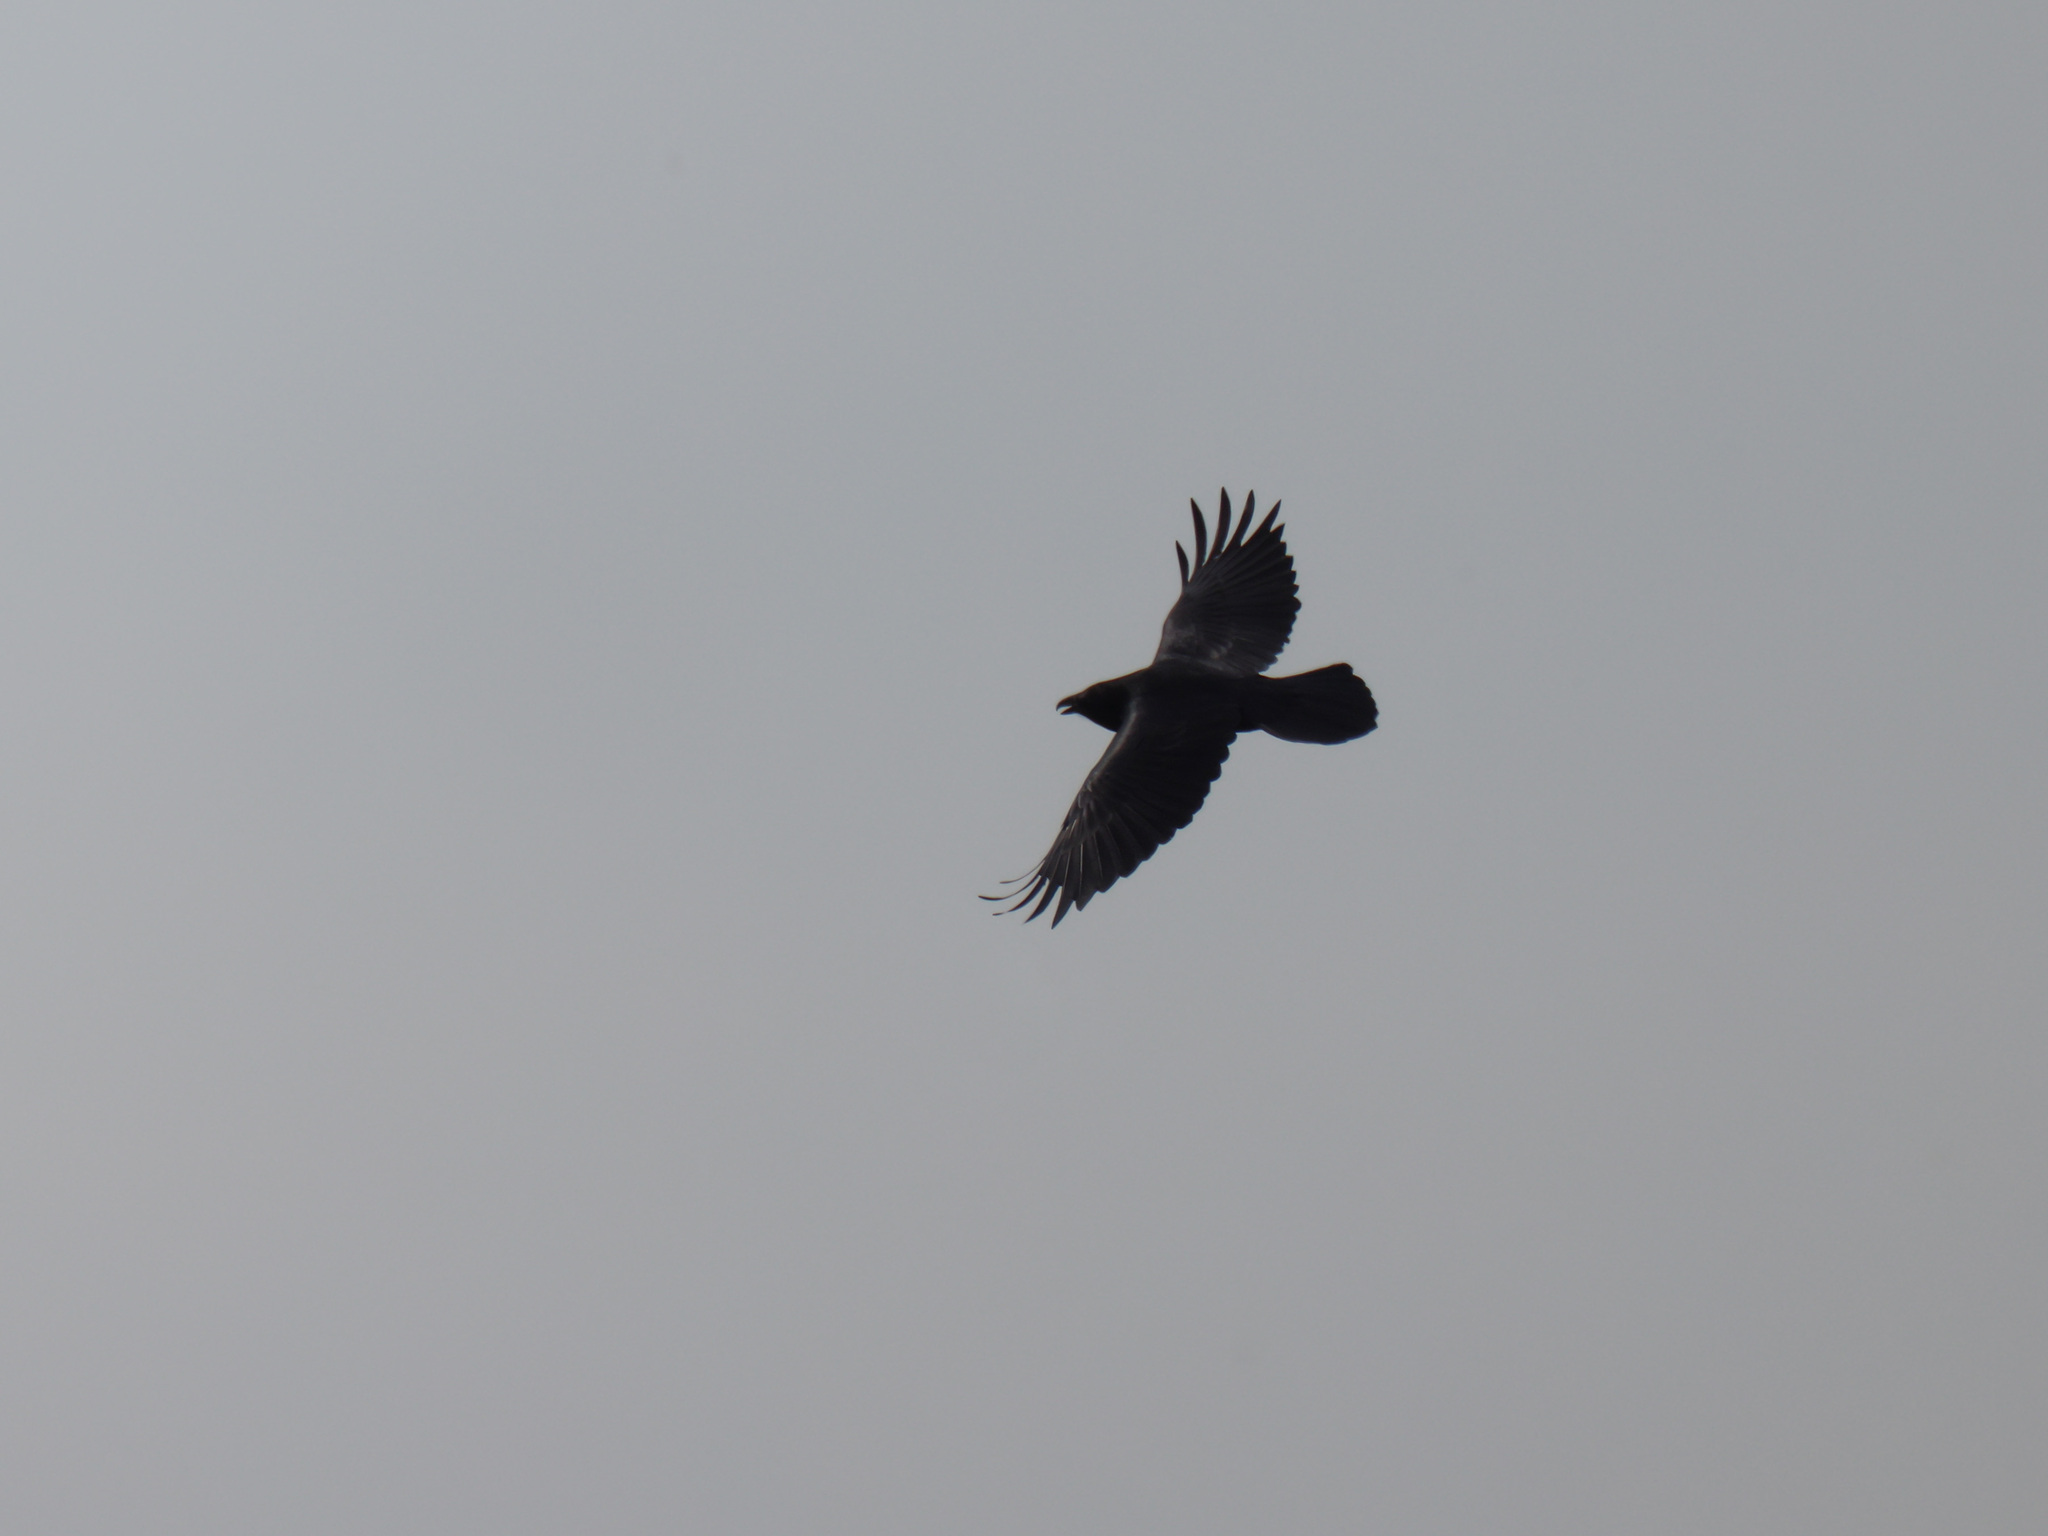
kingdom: Animalia
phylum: Chordata
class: Aves
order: Passeriformes
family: Corvidae
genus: Corvus
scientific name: Corvus corax
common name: Common raven
